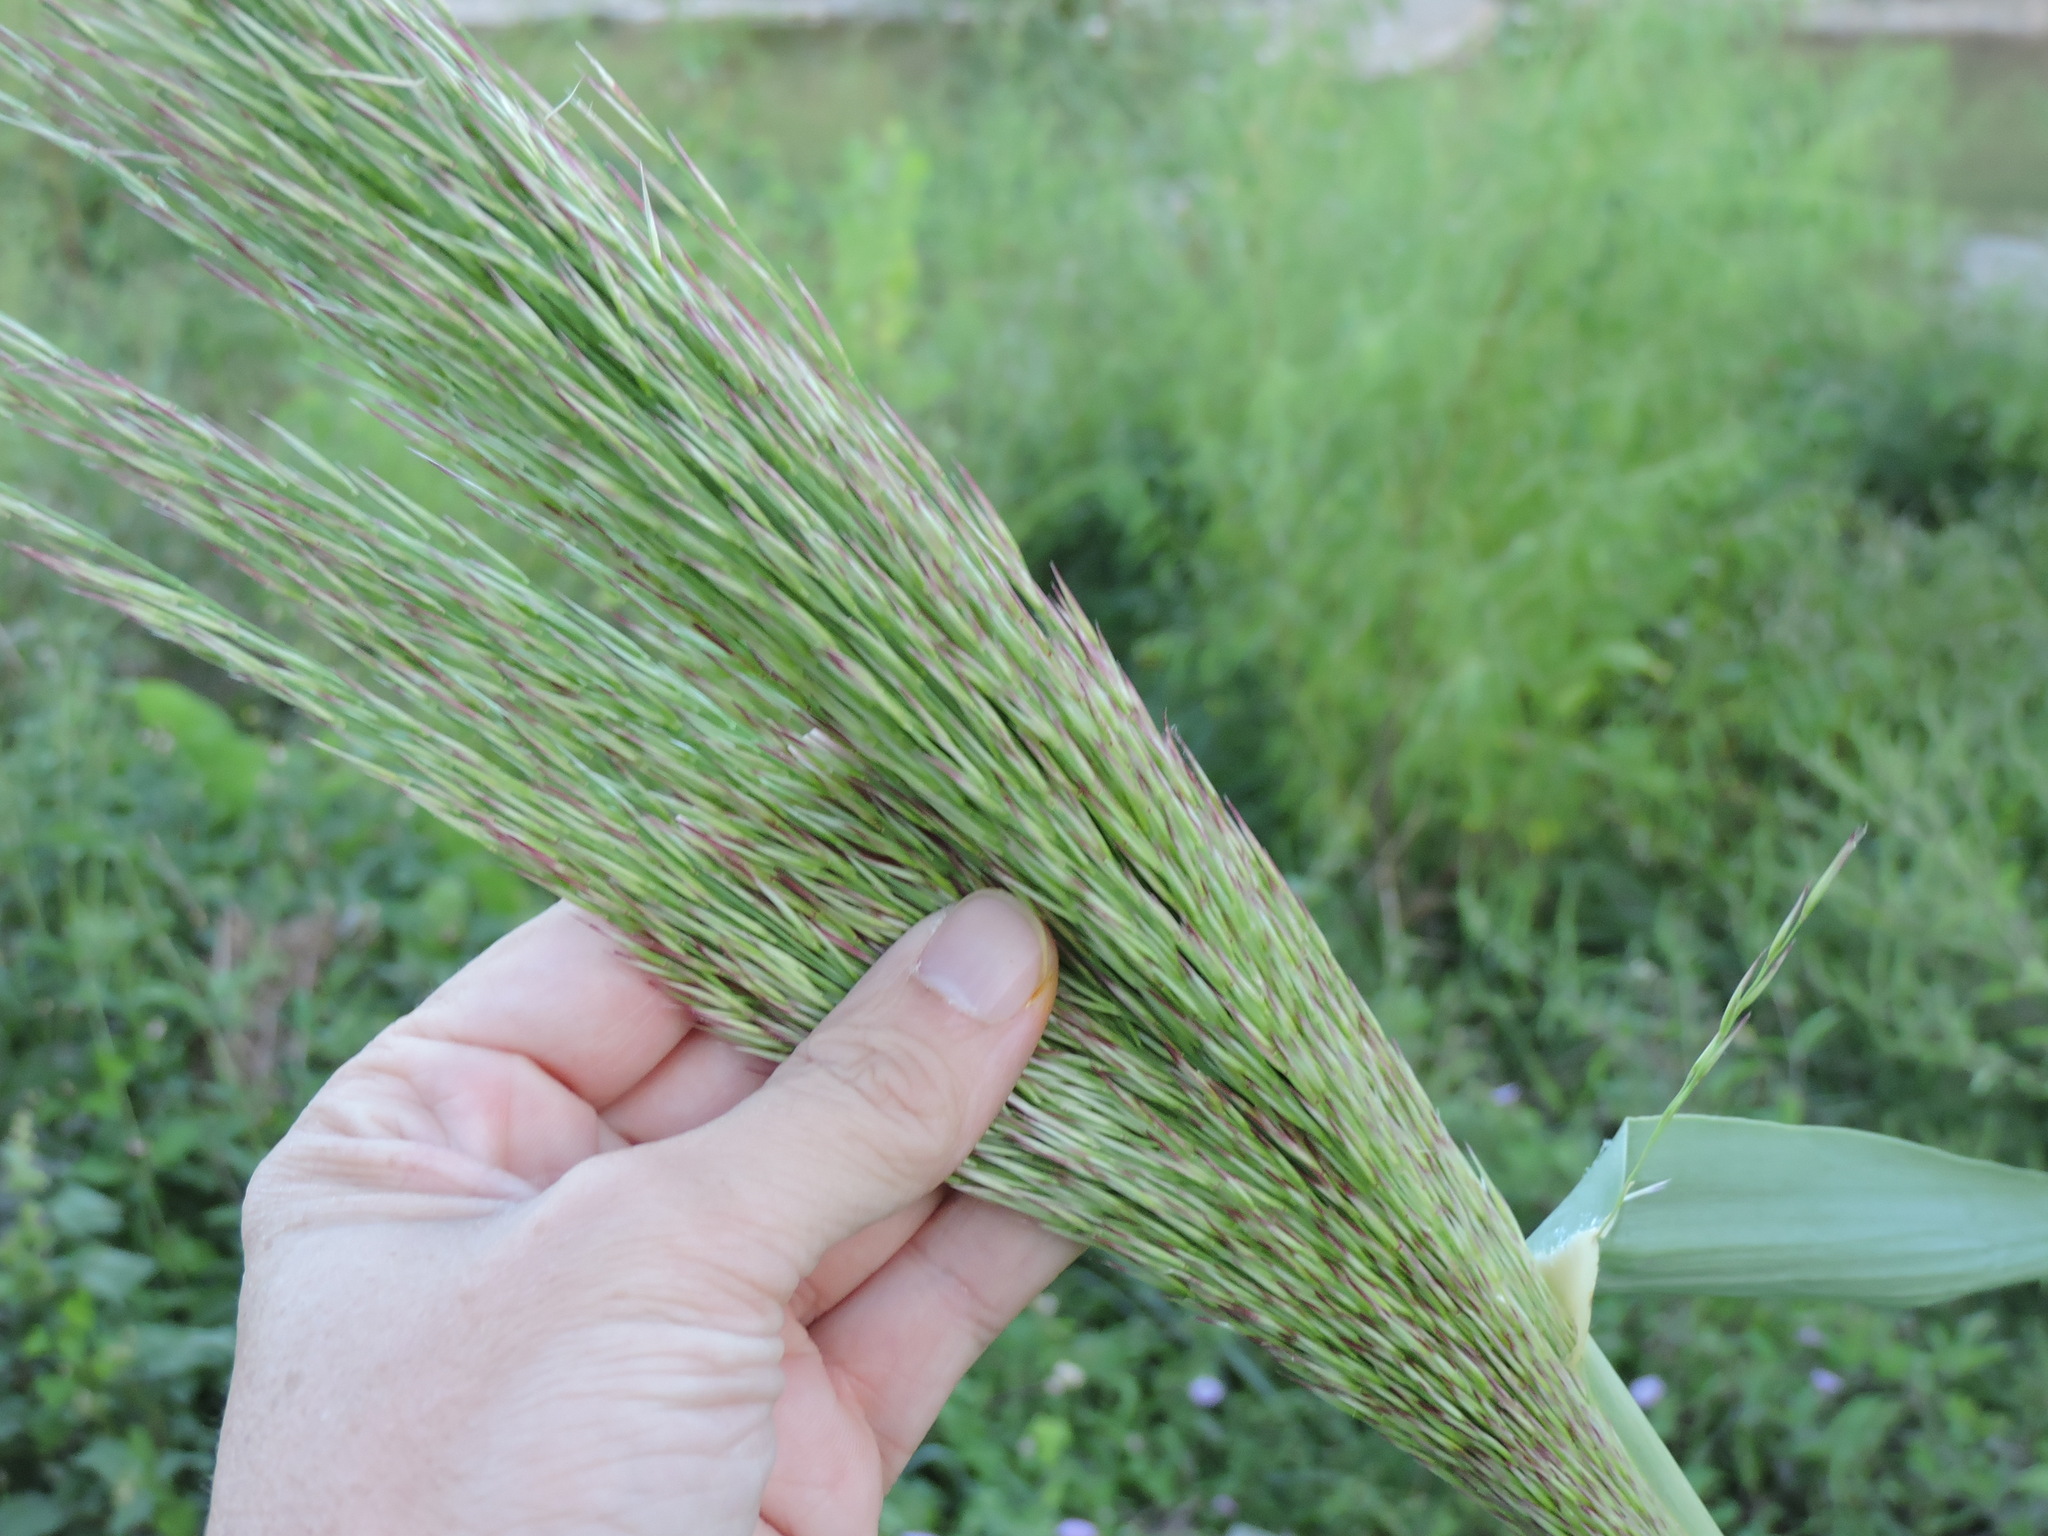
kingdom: Plantae
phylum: Tracheophyta
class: Liliopsida
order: Poales
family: Poaceae
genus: Arundo
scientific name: Arundo donax
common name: Giant reed
